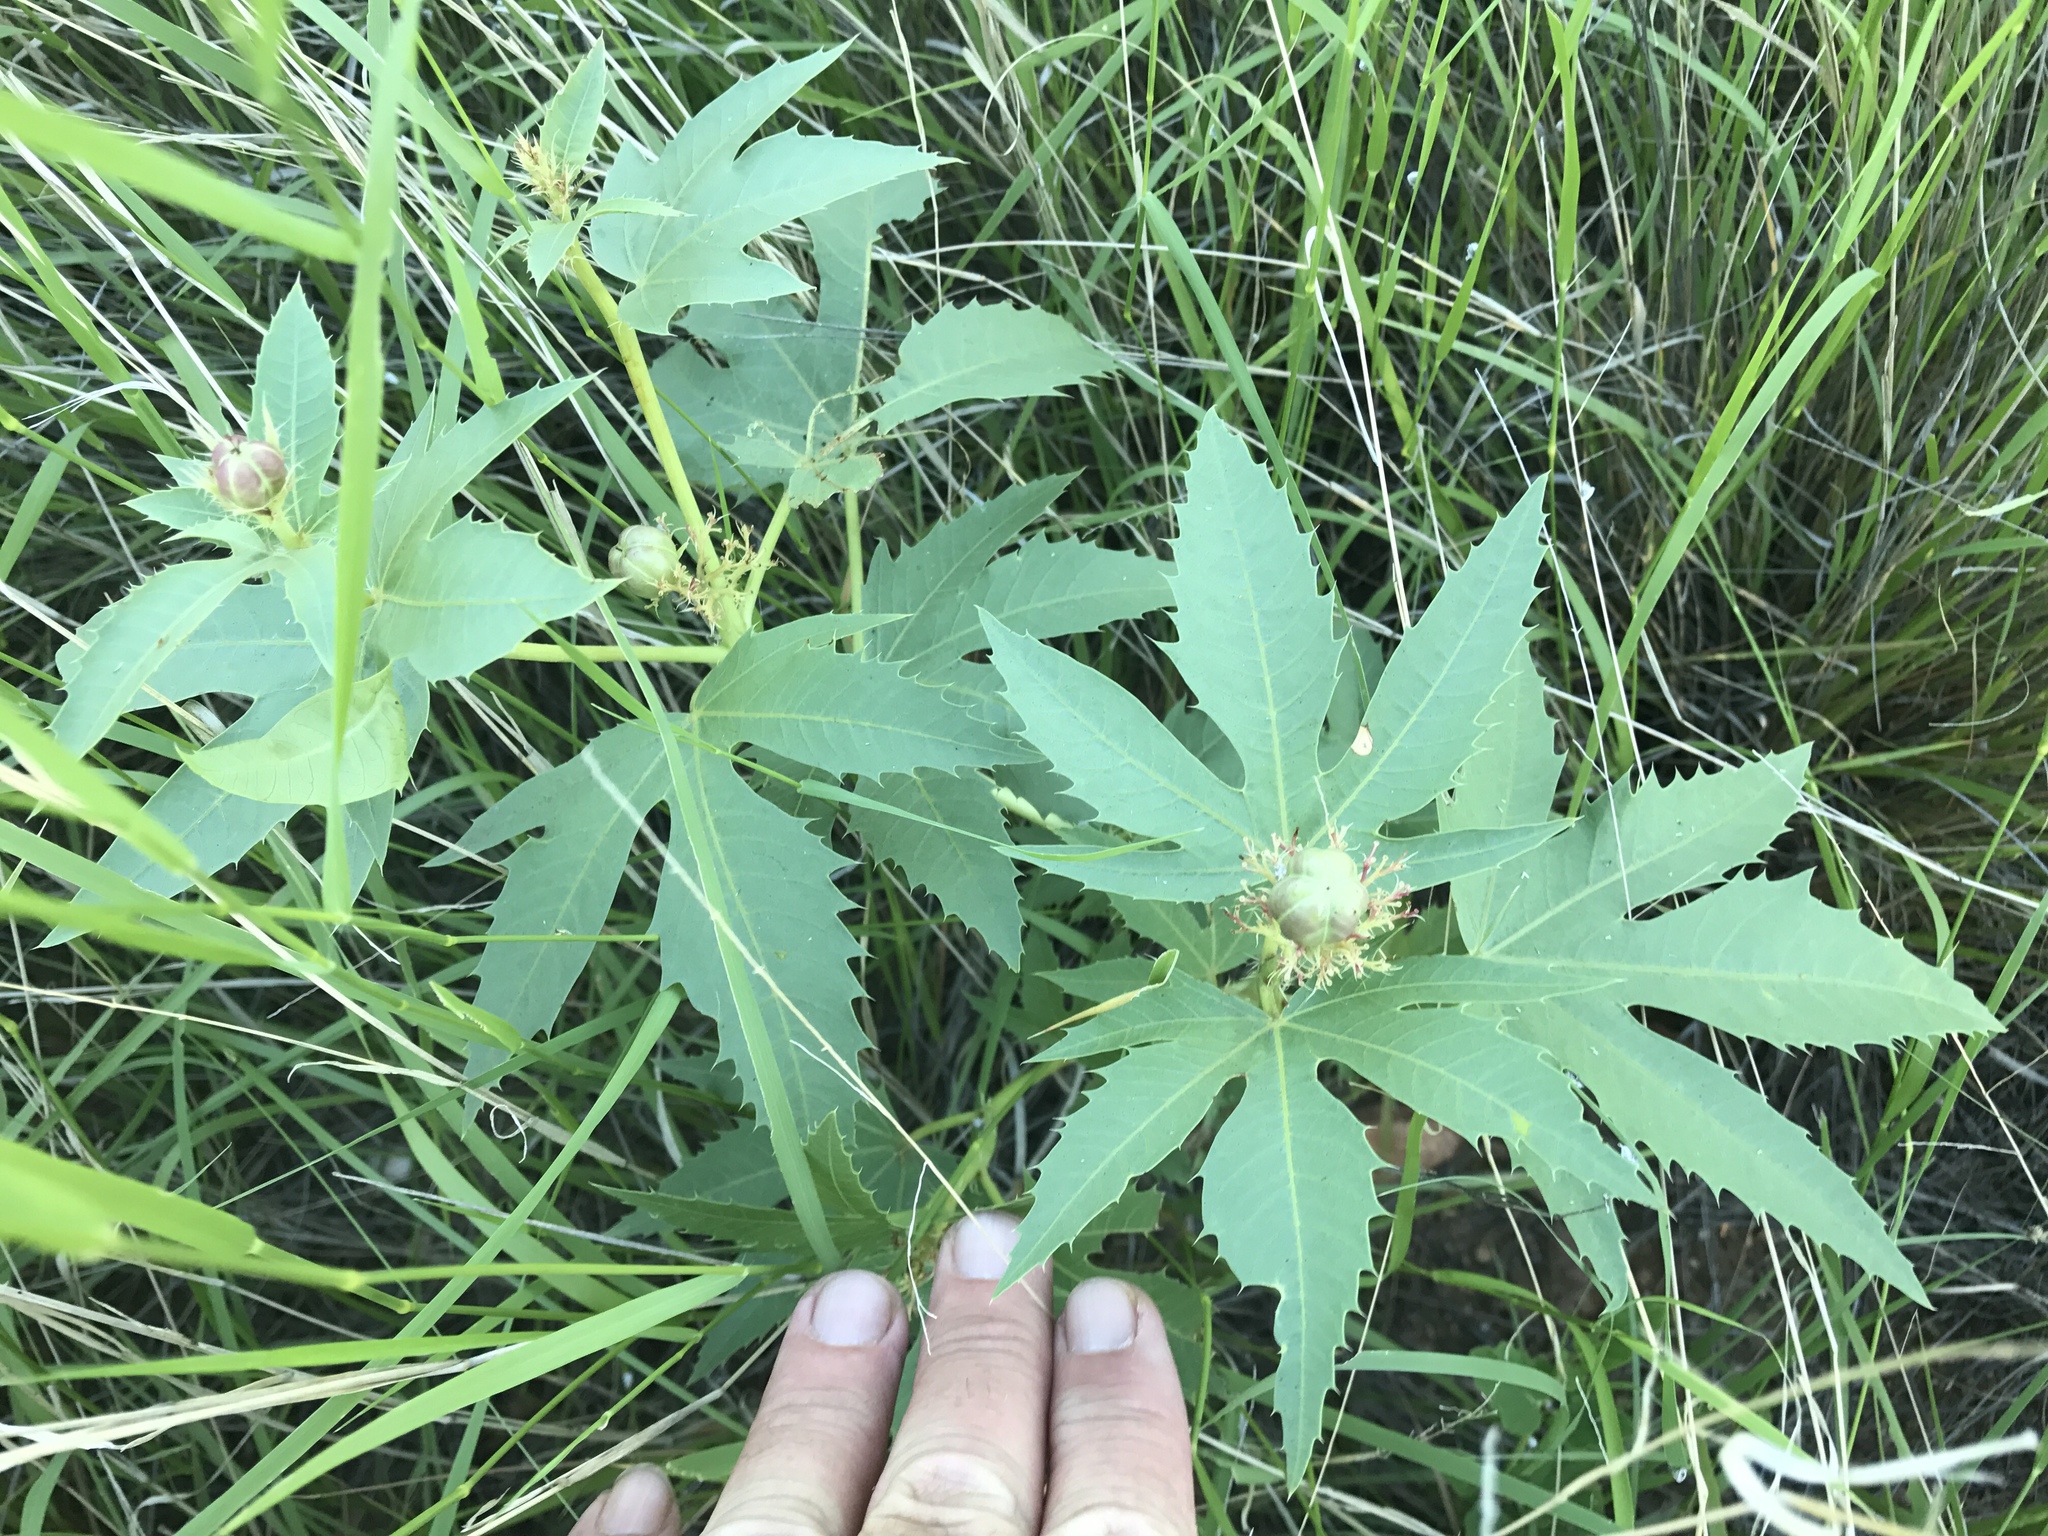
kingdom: Plantae
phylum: Tracheophyta
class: Magnoliopsida
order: Malpighiales
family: Euphorbiaceae
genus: Jatropha
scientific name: Jatropha macrorhiza
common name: Ragged nettlespurge
